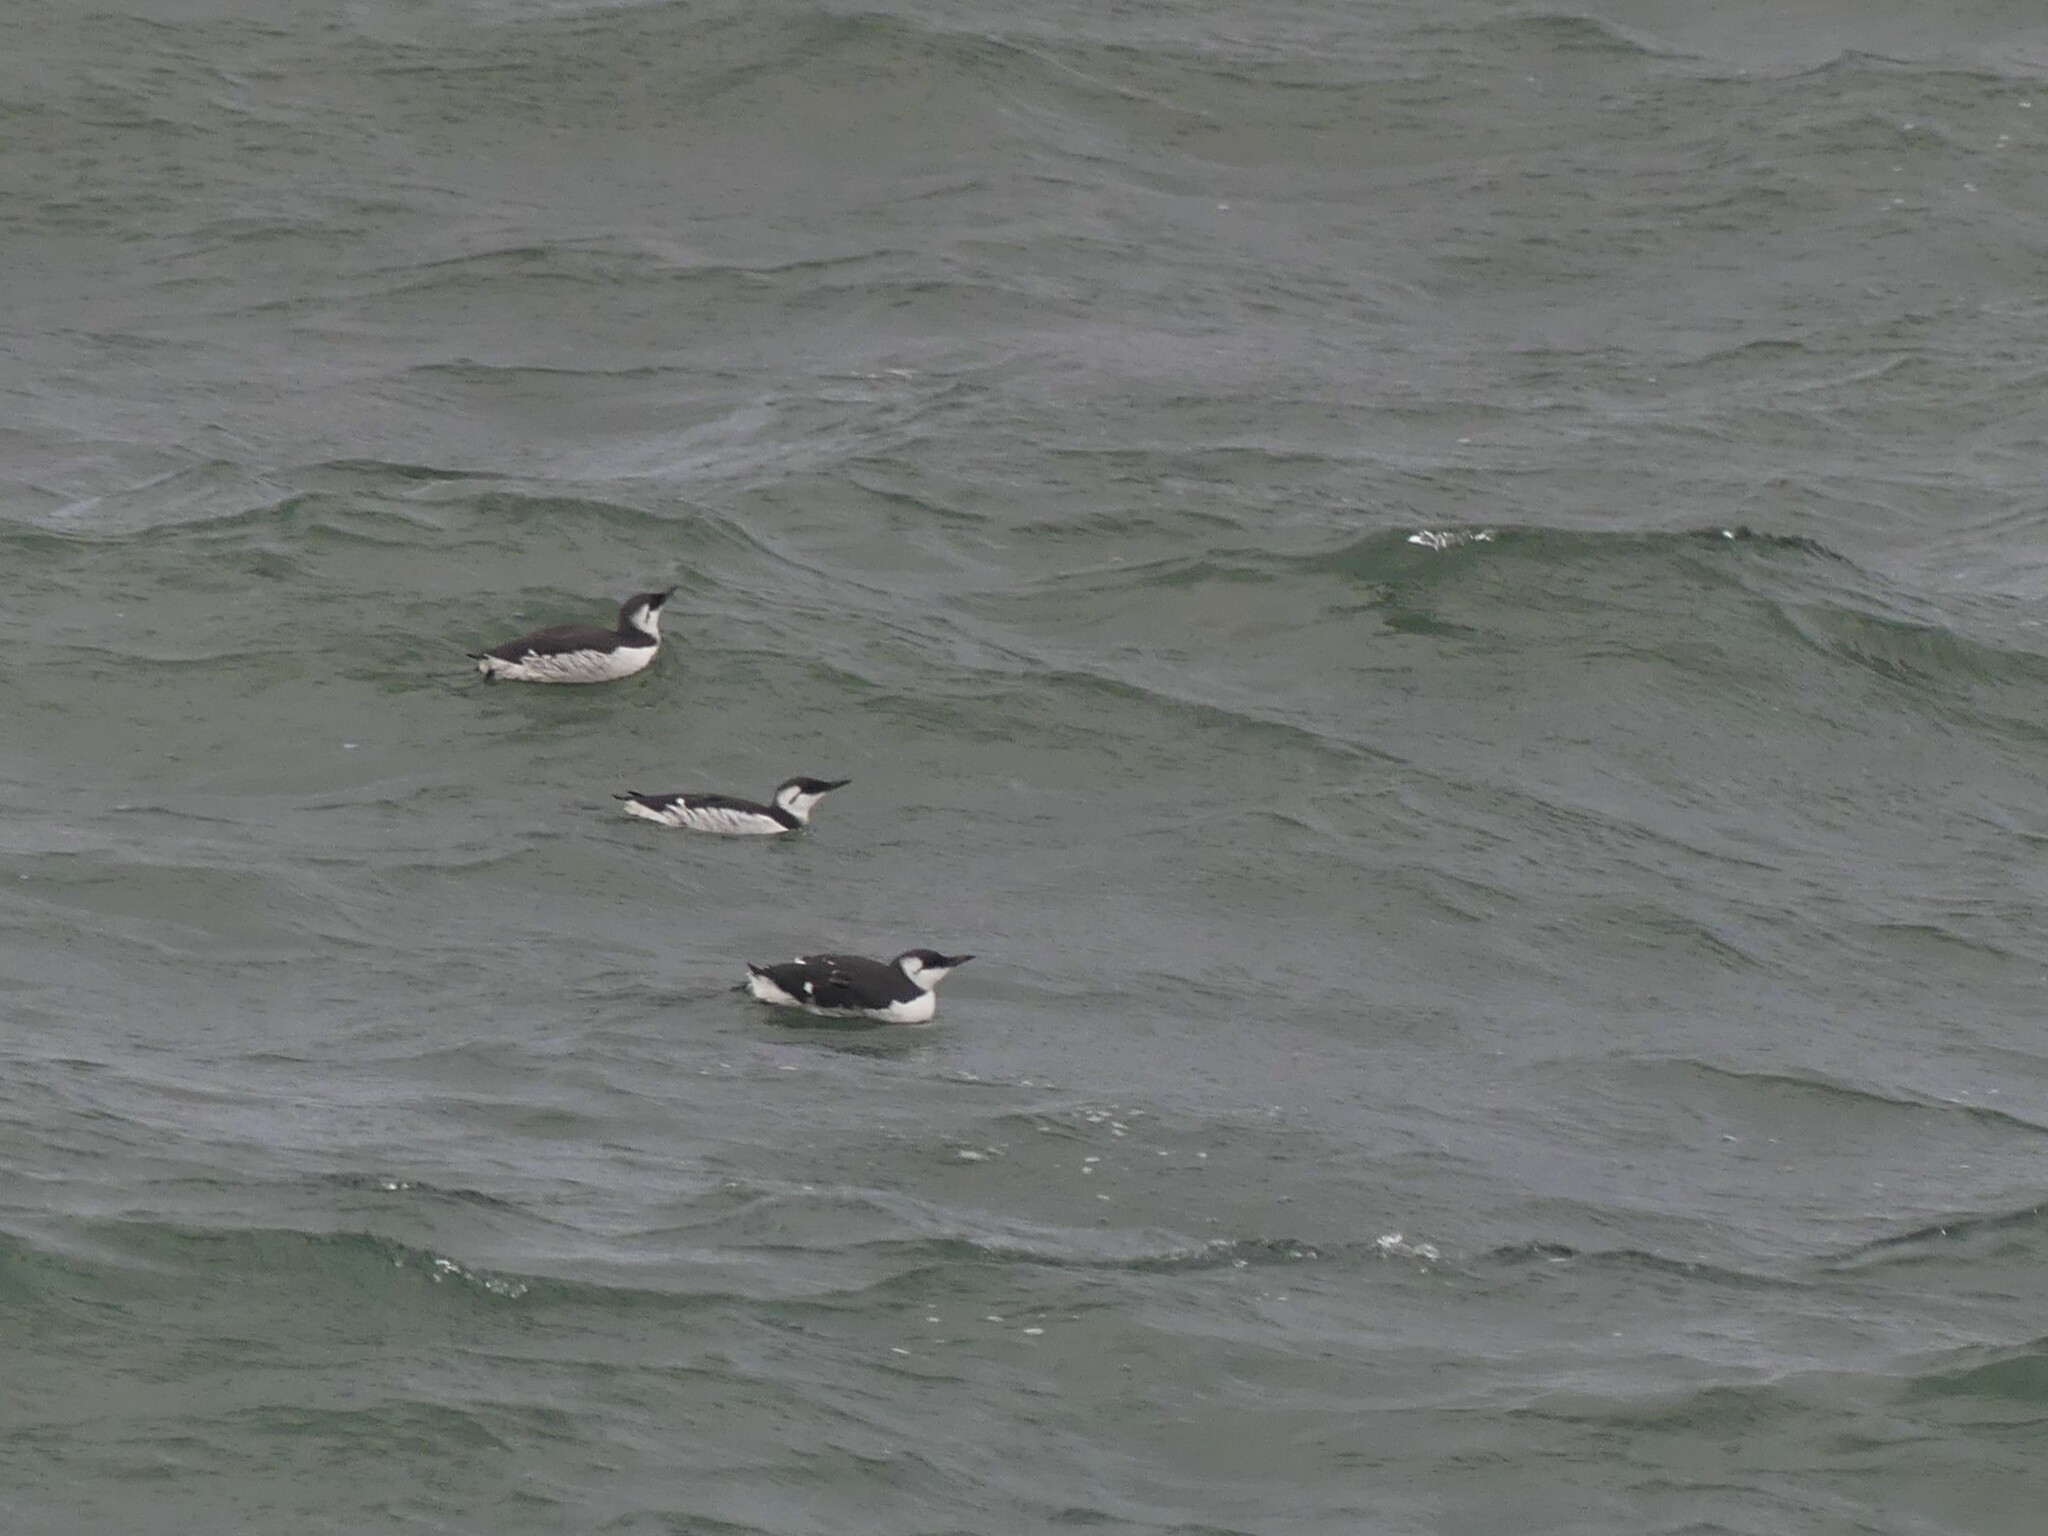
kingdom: Animalia
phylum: Chordata
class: Aves
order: Charadriiformes
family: Alcidae
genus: Uria
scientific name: Uria aalge
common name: Common murre
